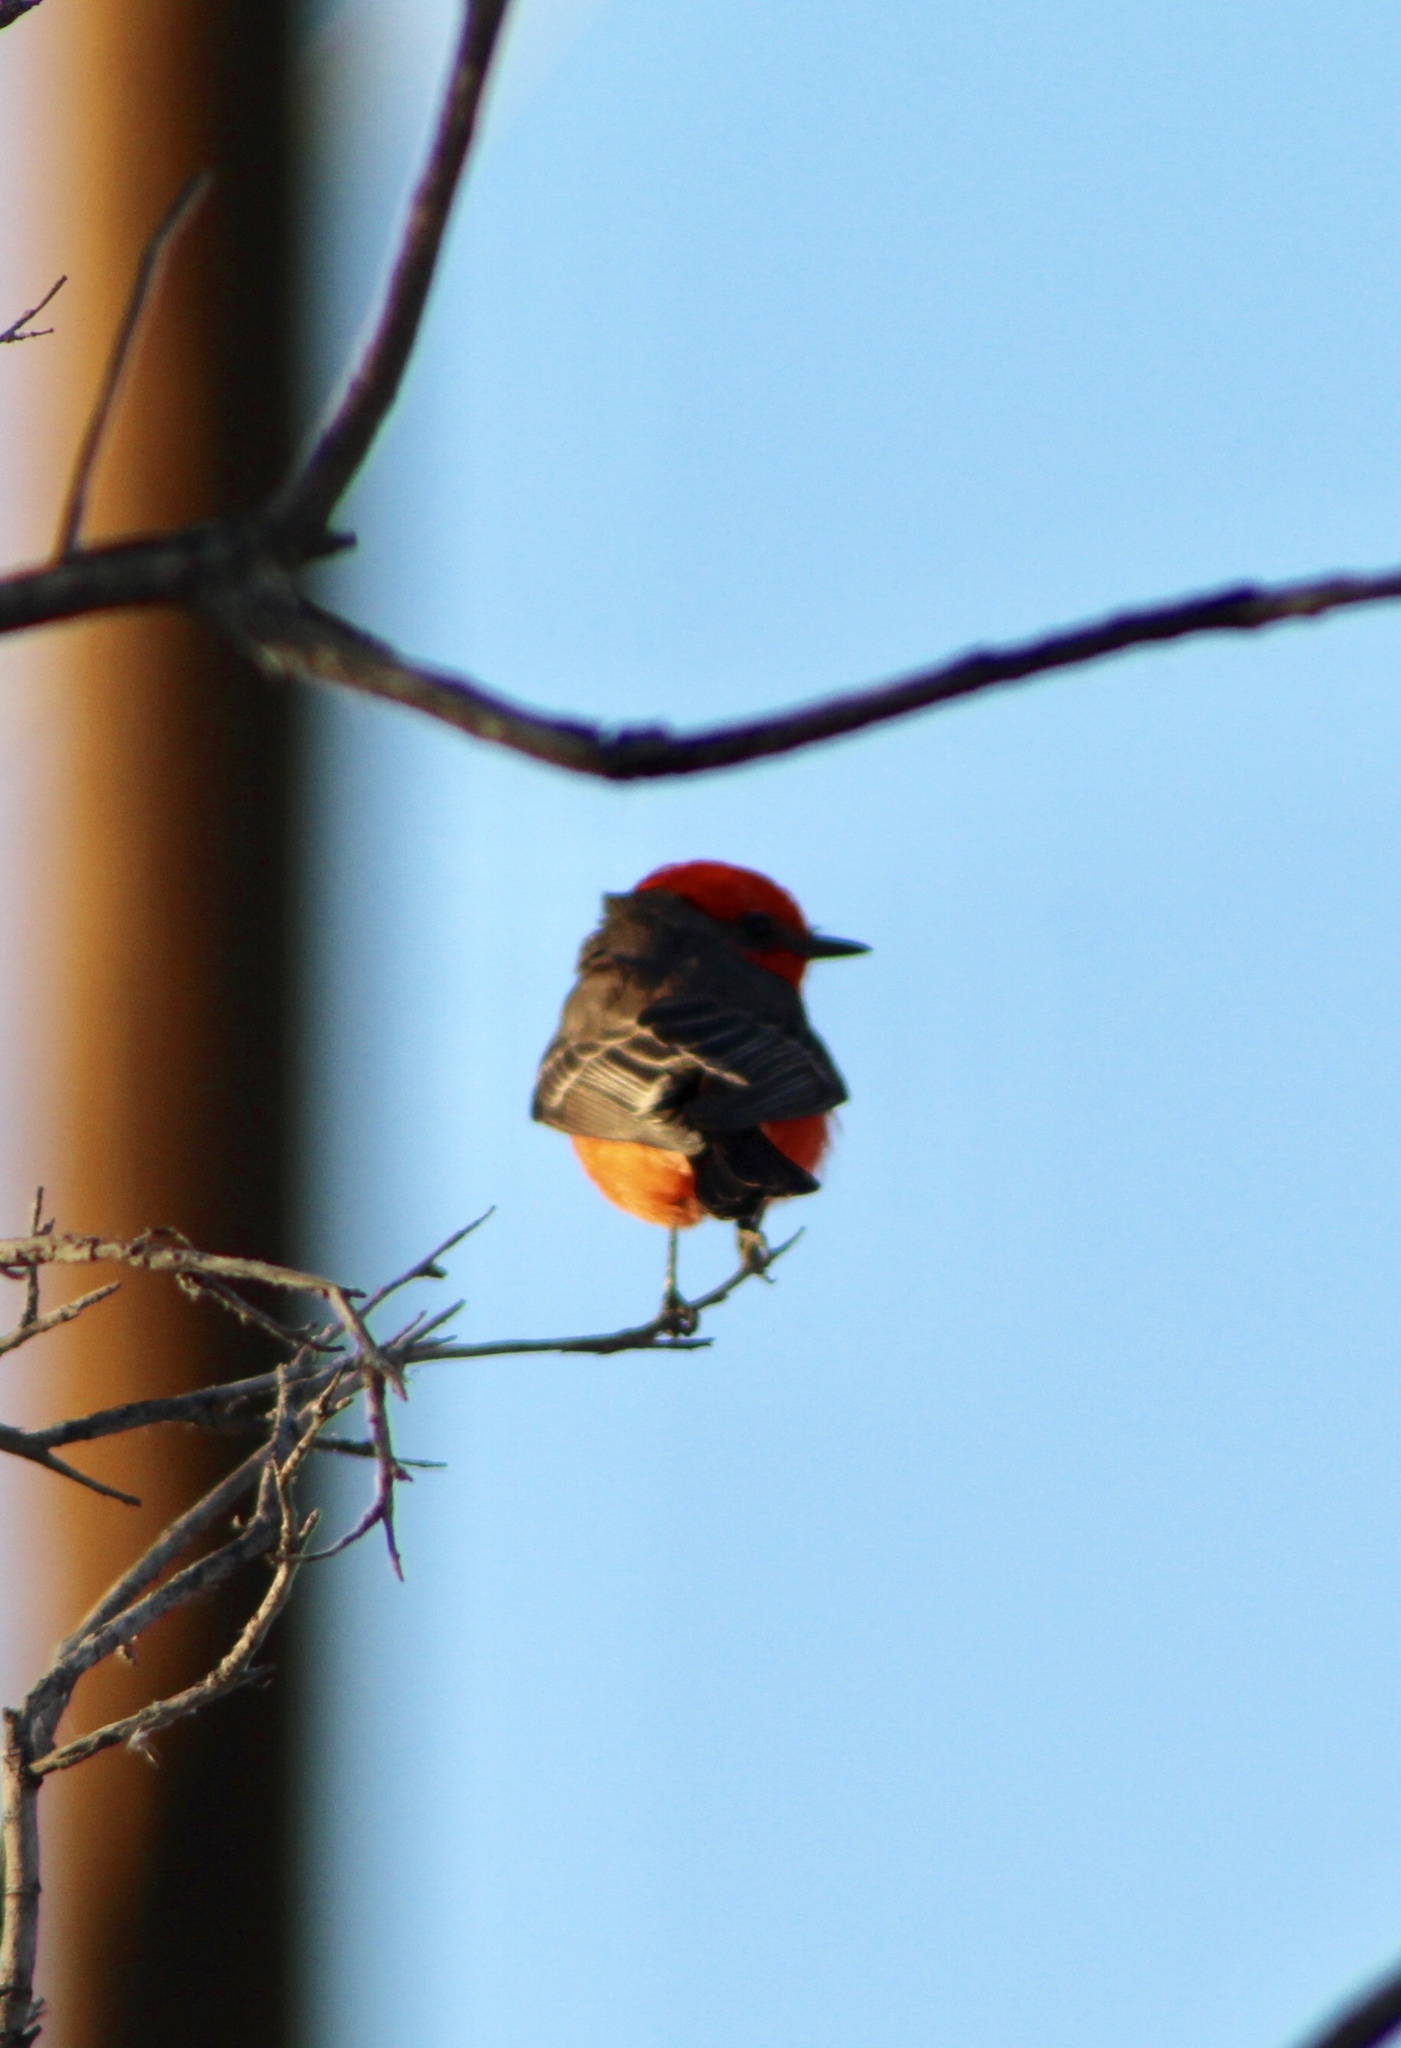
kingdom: Animalia
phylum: Chordata
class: Aves
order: Passeriformes
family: Tyrannidae
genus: Pyrocephalus
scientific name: Pyrocephalus rubinus
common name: Vermilion flycatcher
